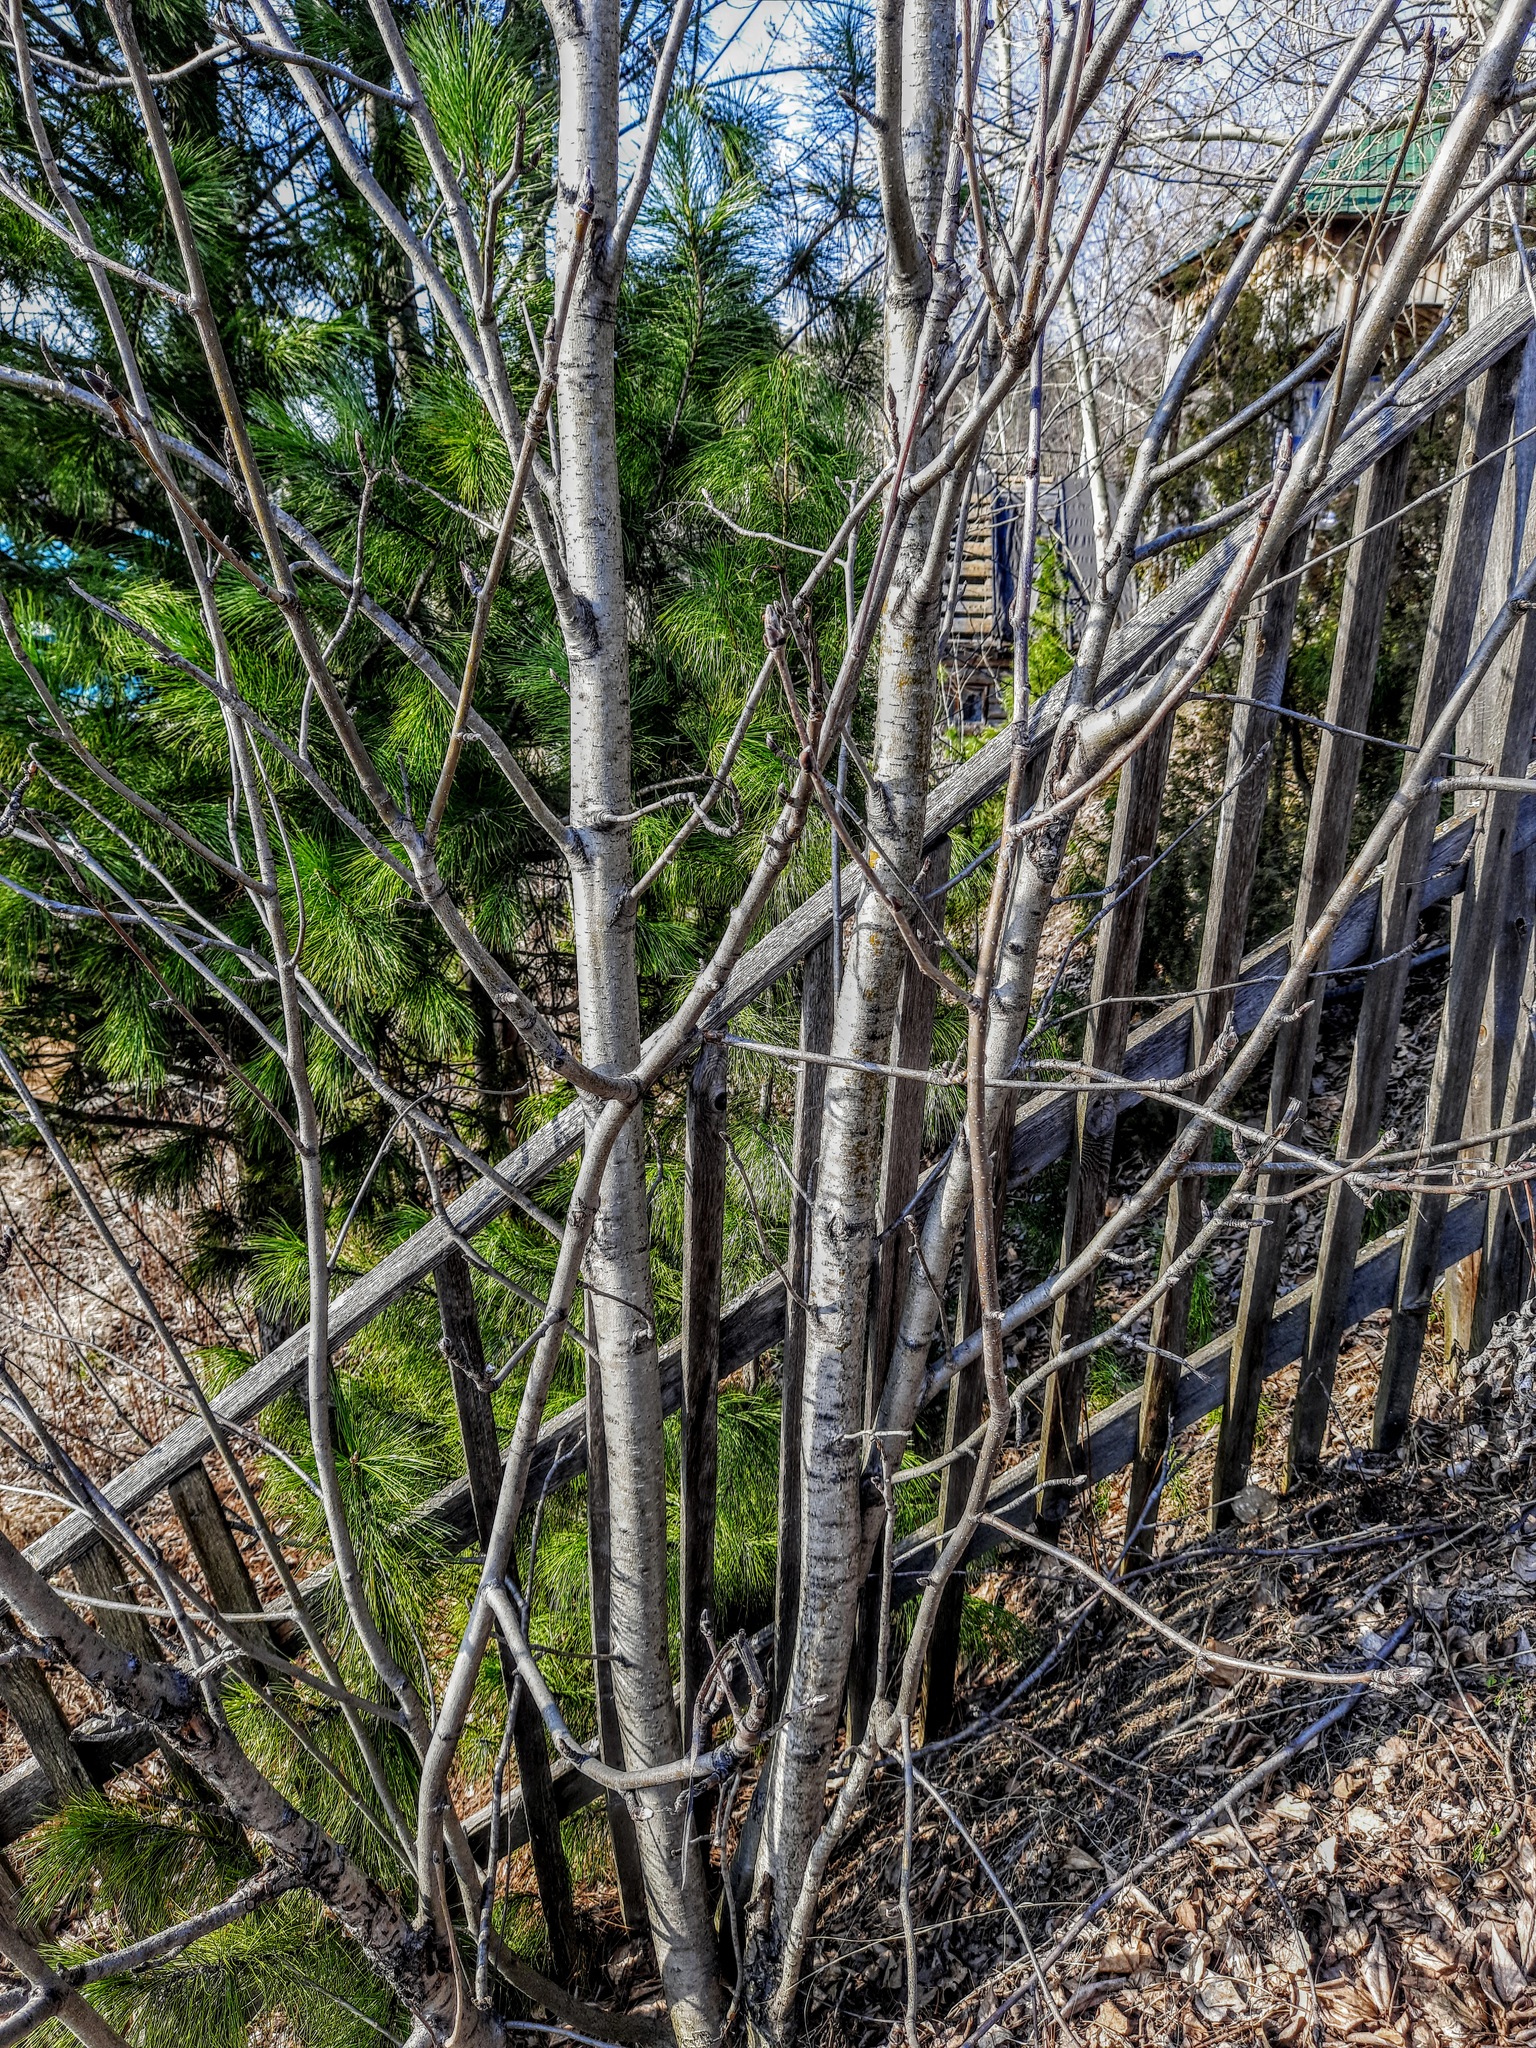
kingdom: Plantae
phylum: Tracheophyta
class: Magnoliopsida
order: Rosales
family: Rosaceae
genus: Sorbus
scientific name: Sorbus aucuparia
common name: Rowan
